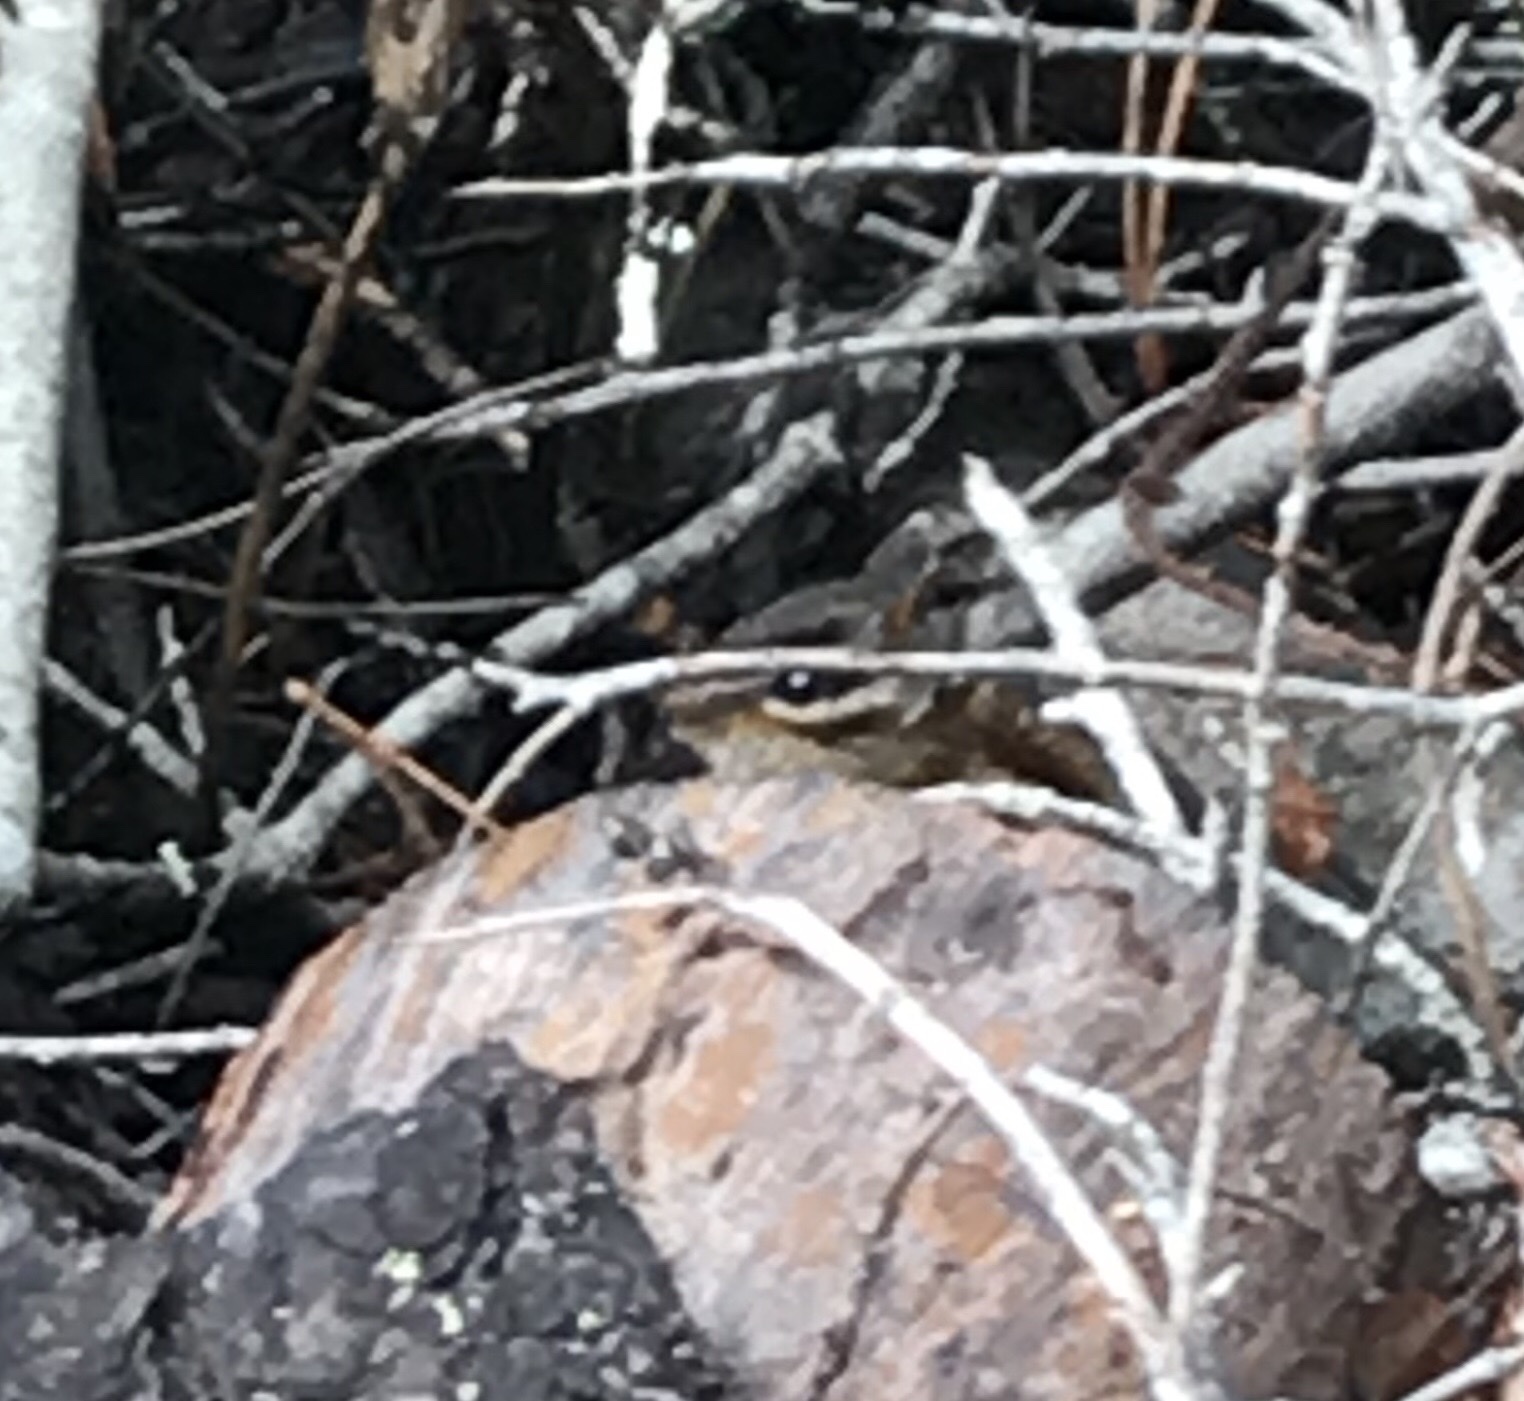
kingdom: Animalia
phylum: Chordata
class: Mammalia
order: Rodentia
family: Sciuridae
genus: Tamias
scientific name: Tamias sonomae
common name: Sonoma chipmunk
